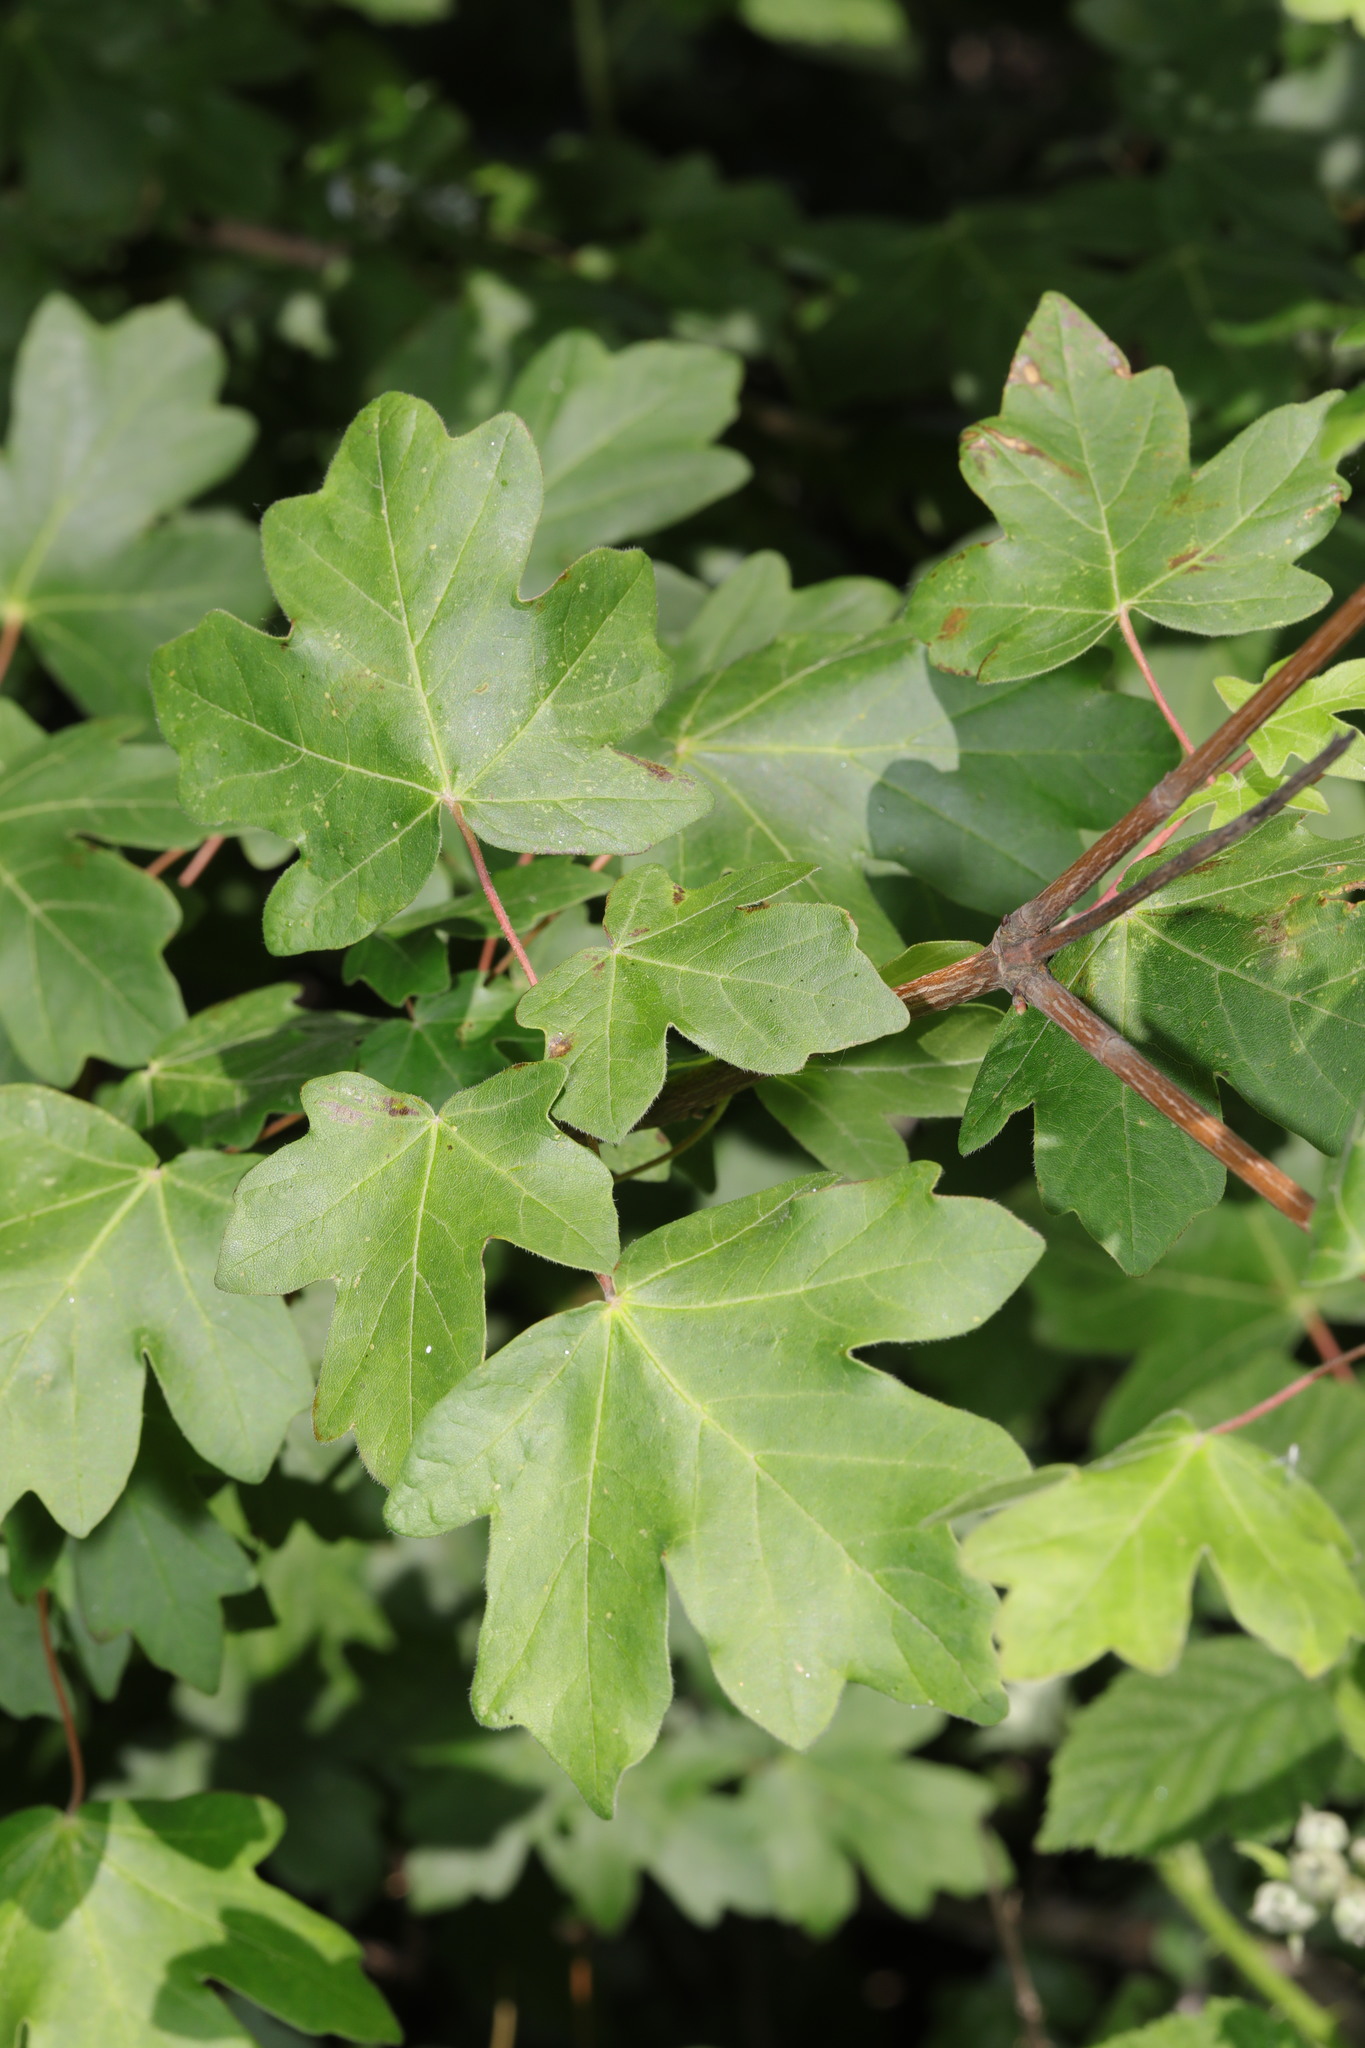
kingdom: Plantae
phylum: Tracheophyta
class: Magnoliopsida
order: Sapindales
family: Sapindaceae
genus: Acer
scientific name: Acer campestre
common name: Field maple
